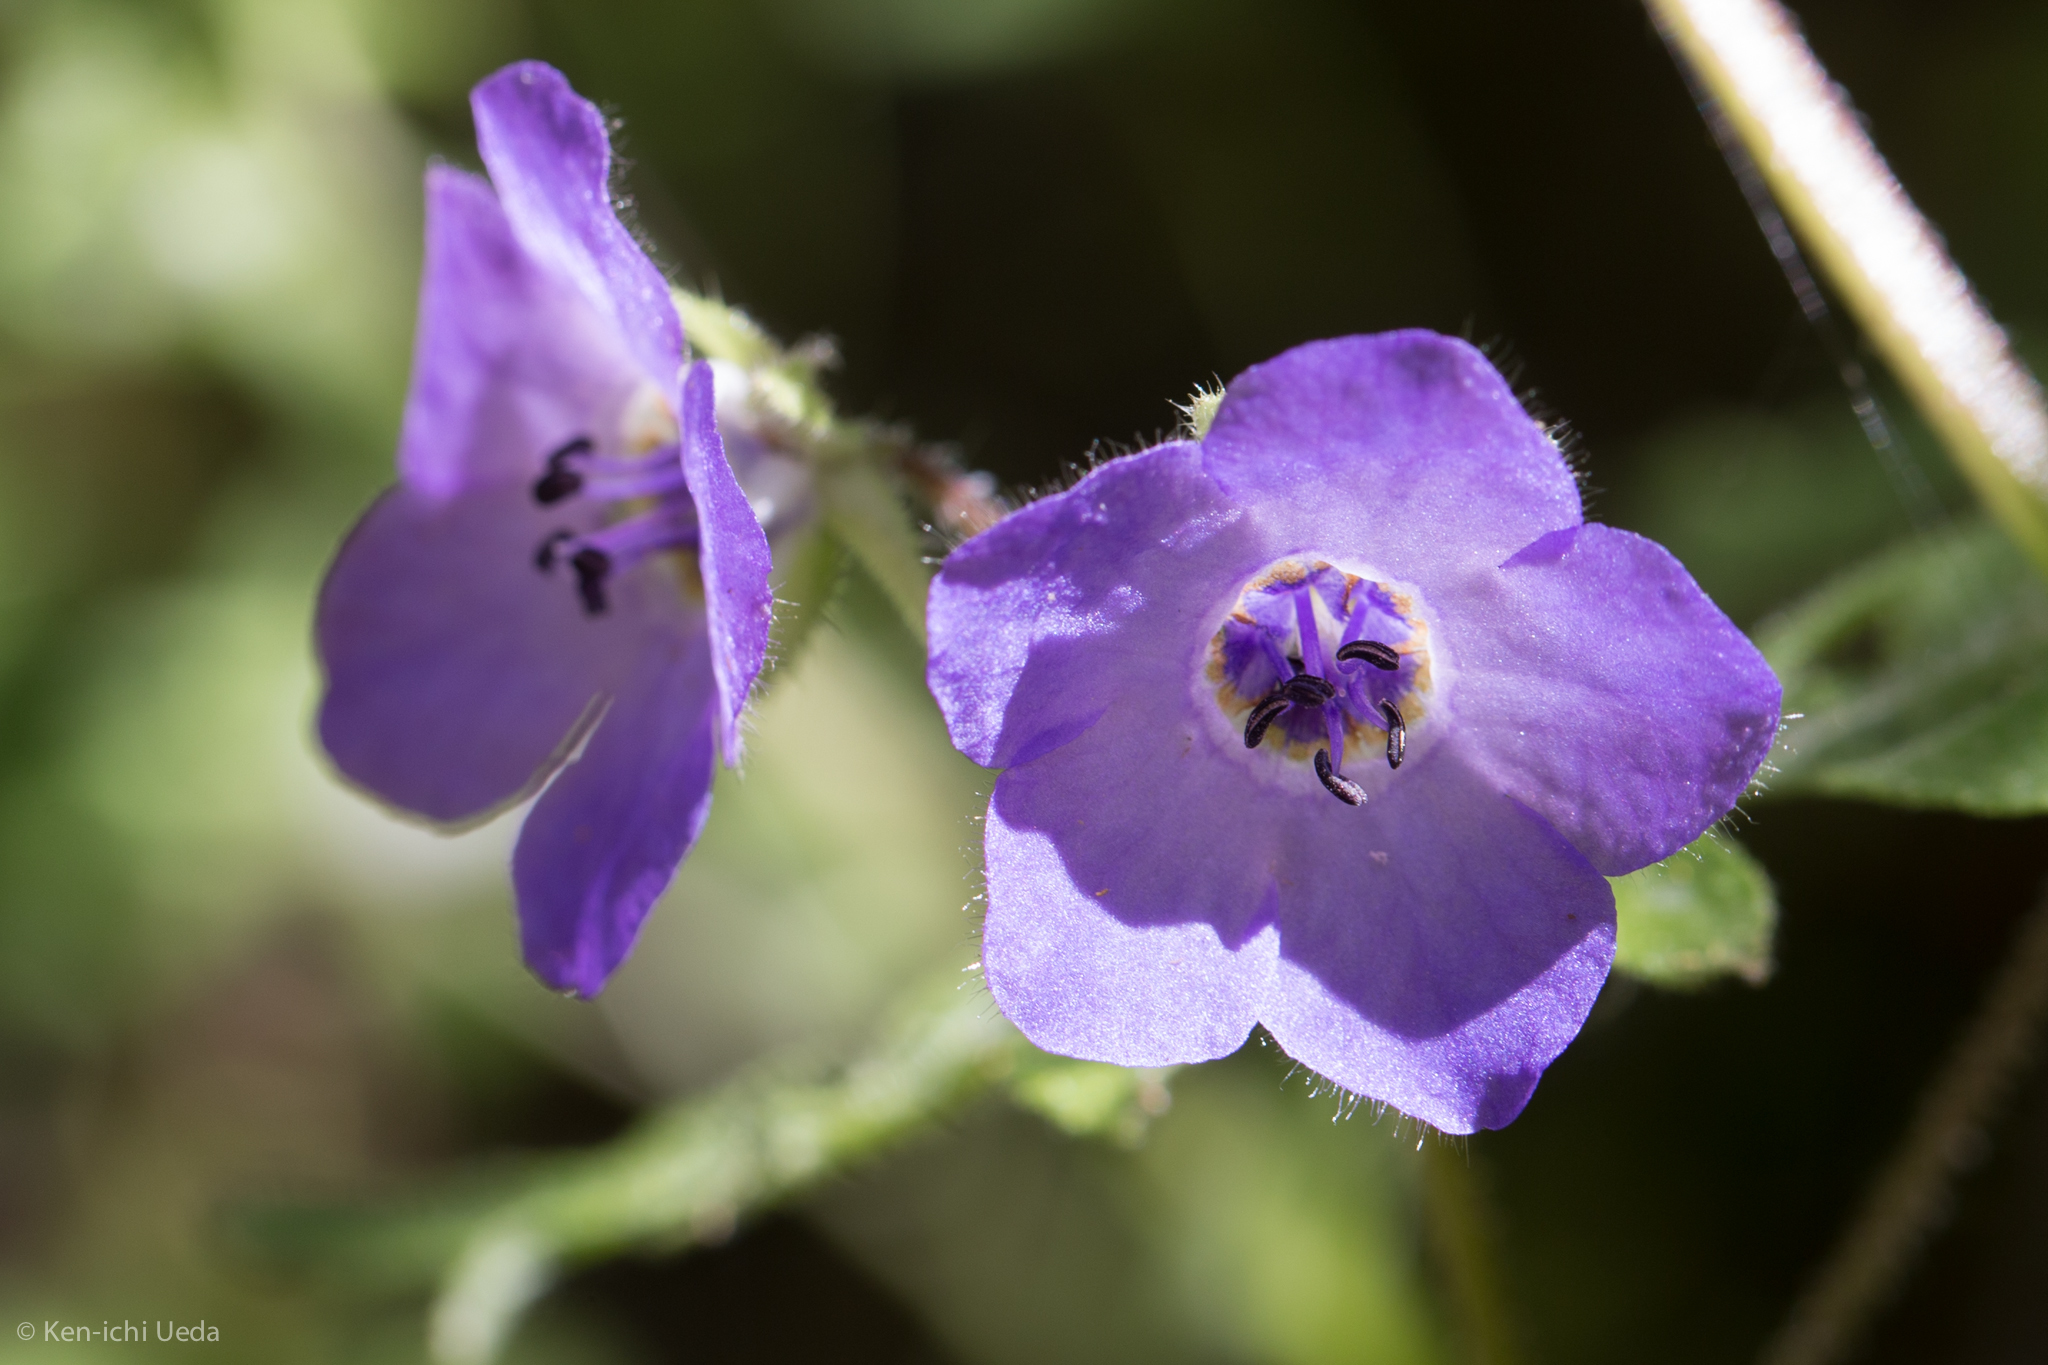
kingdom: Plantae
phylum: Tracheophyta
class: Magnoliopsida
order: Boraginales
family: Hydrophyllaceae
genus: Pholistoma
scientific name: Pholistoma auritum
